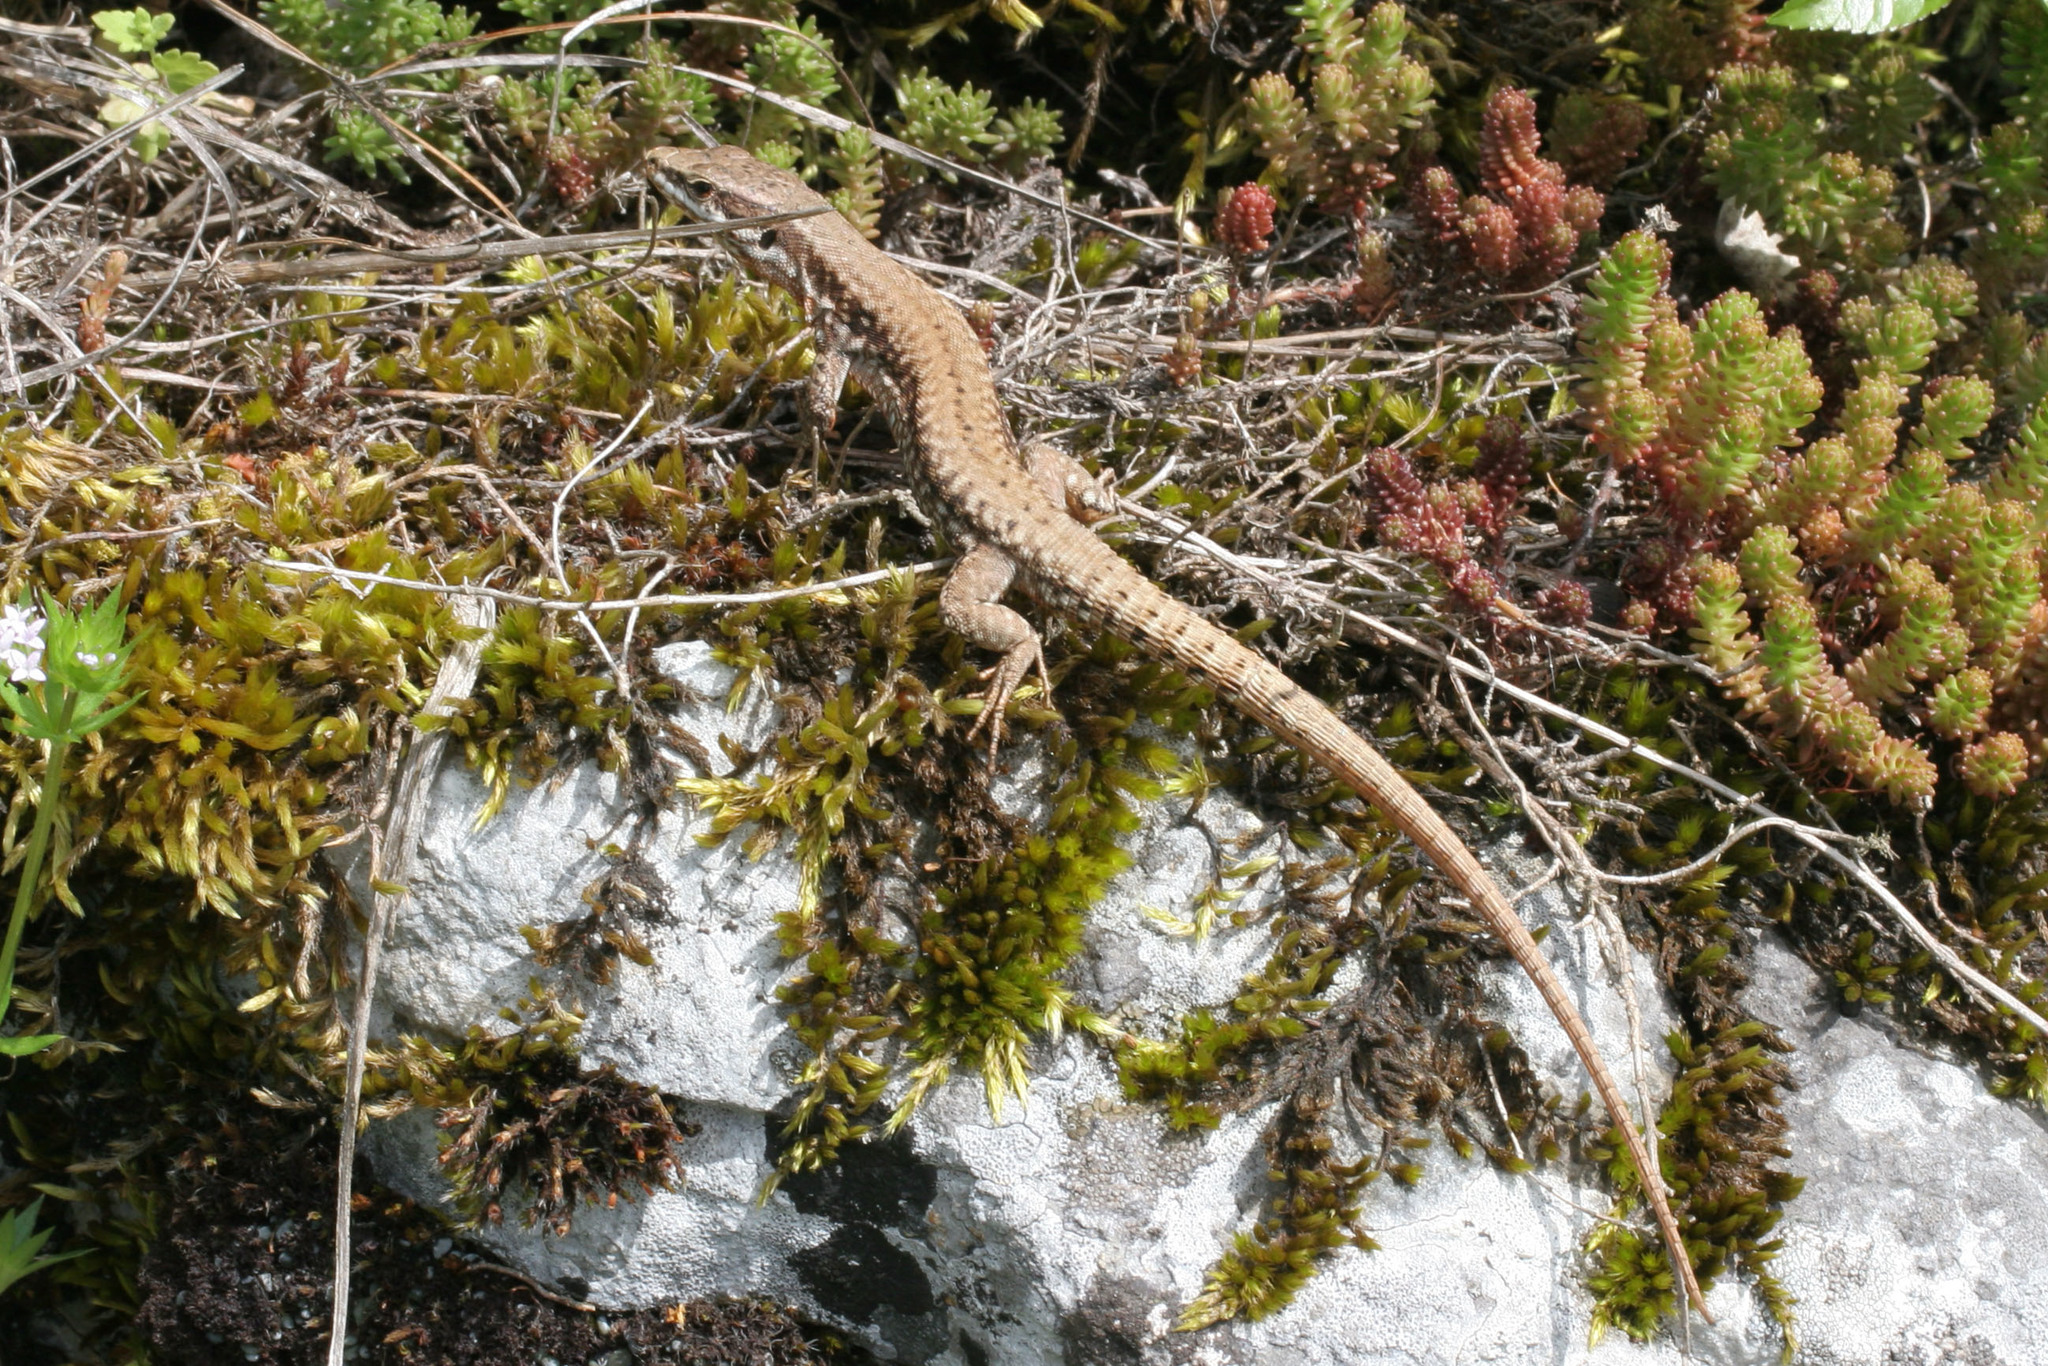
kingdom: Animalia
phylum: Chordata
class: Squamata
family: Lacertidae
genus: Podarcis
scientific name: Podarcis muralis
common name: Common wall lizard
